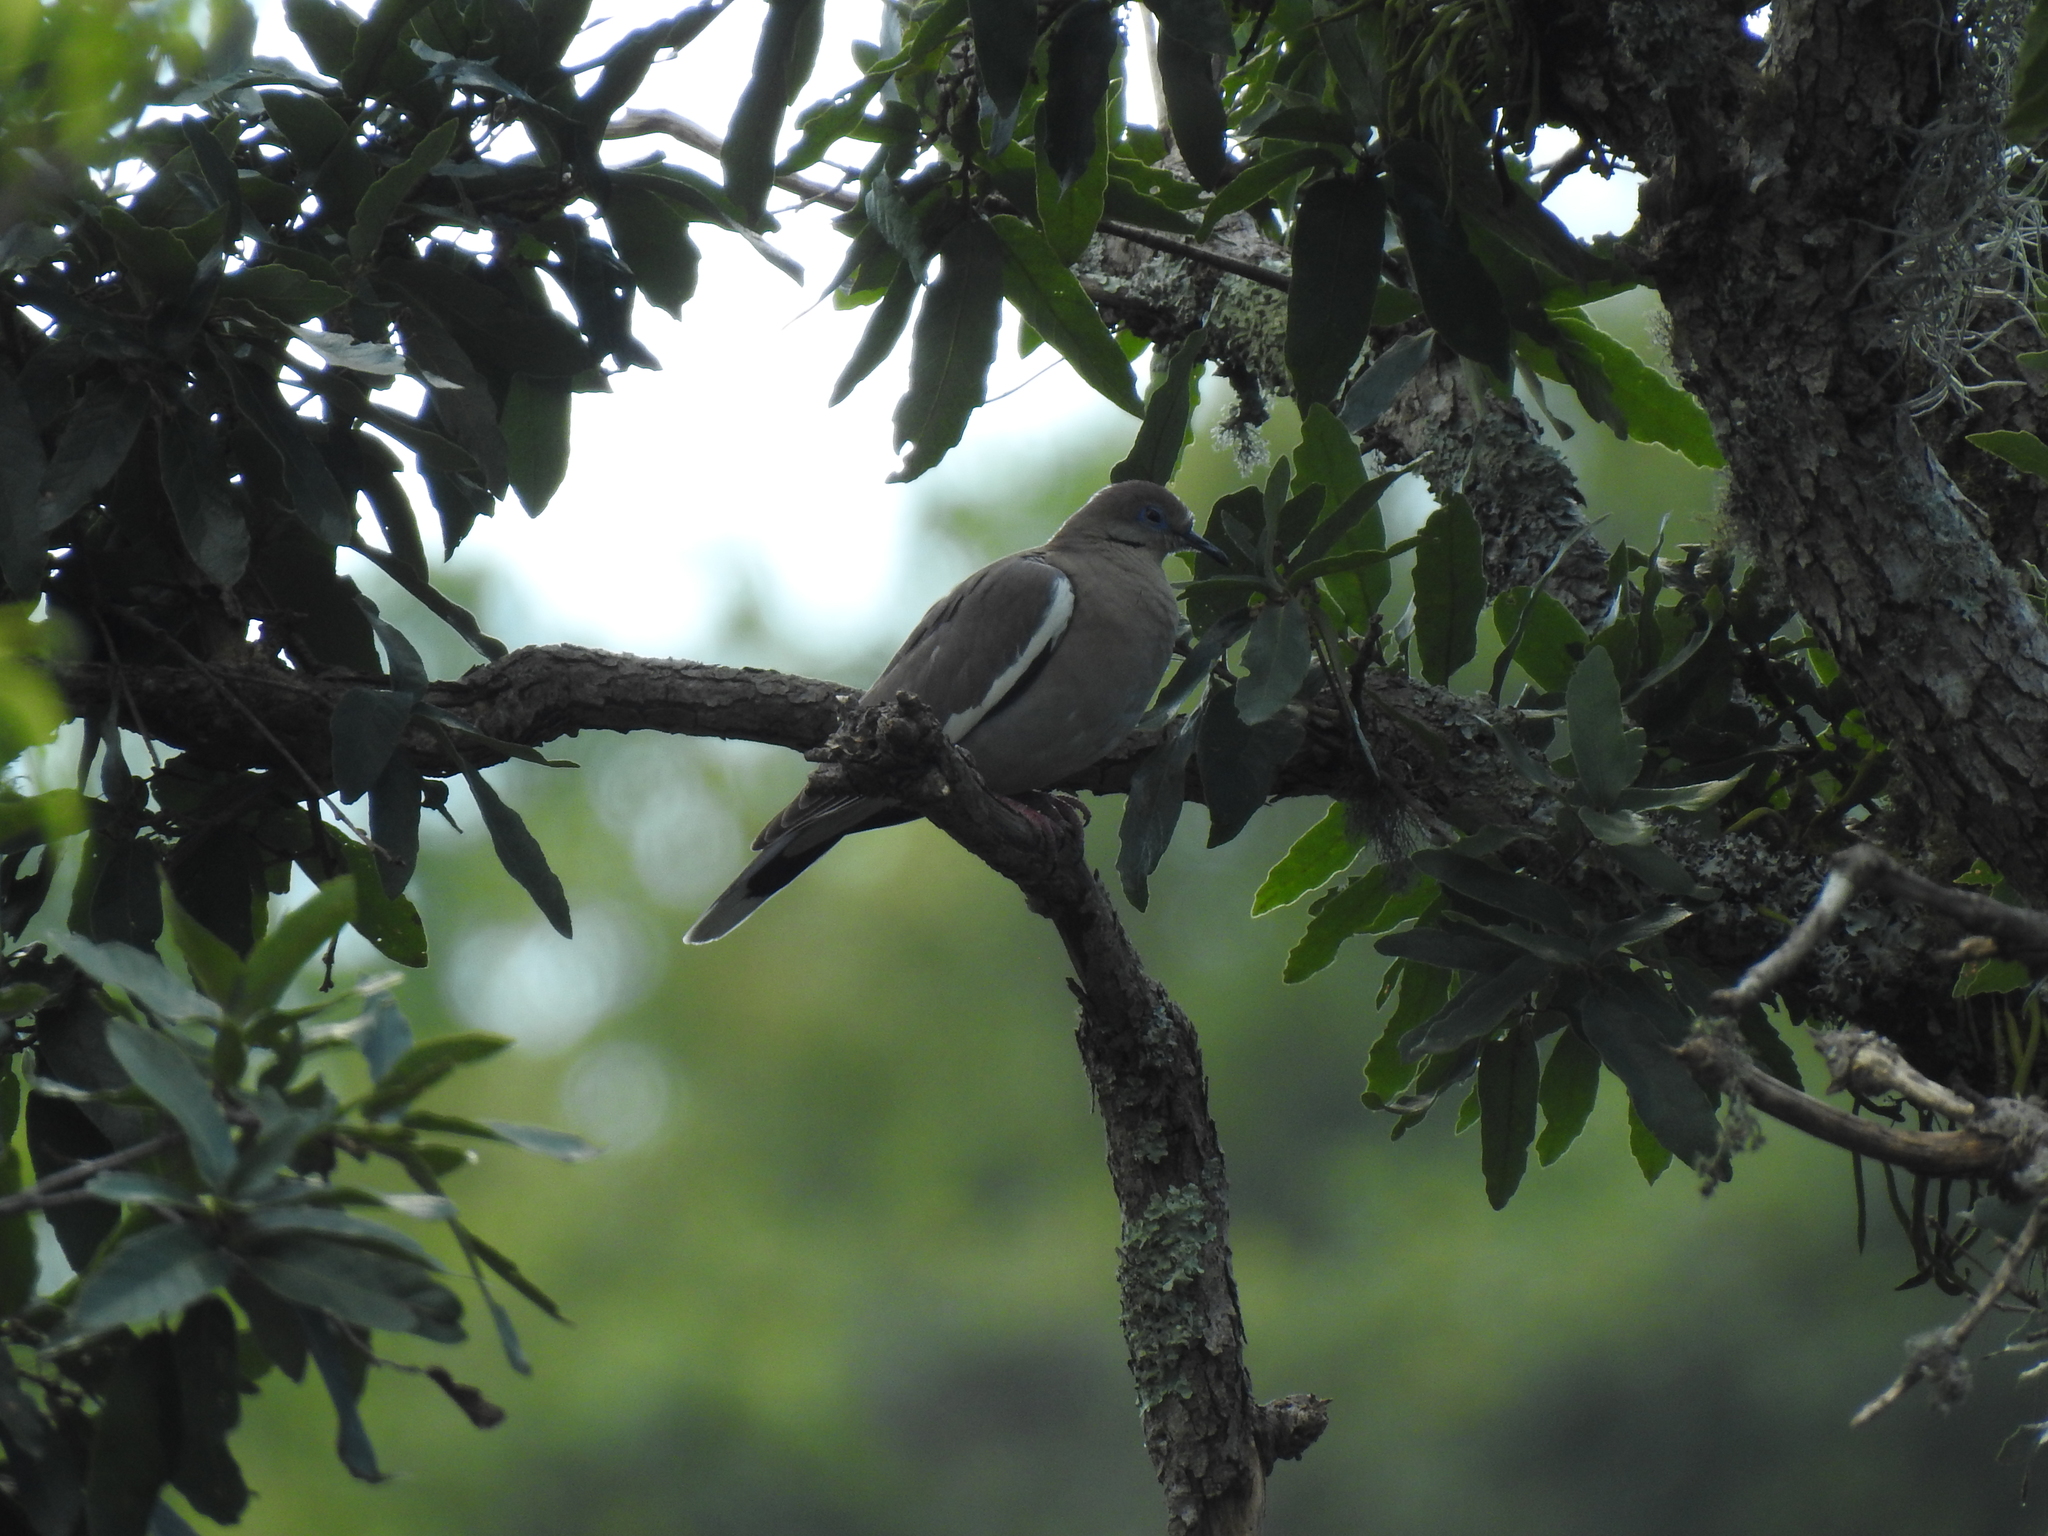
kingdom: Animalia
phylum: Chordata
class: Aves
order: Columbiformes
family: Columbidae
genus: Zenaida
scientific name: Zenaida asiatica
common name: White-winged dove
